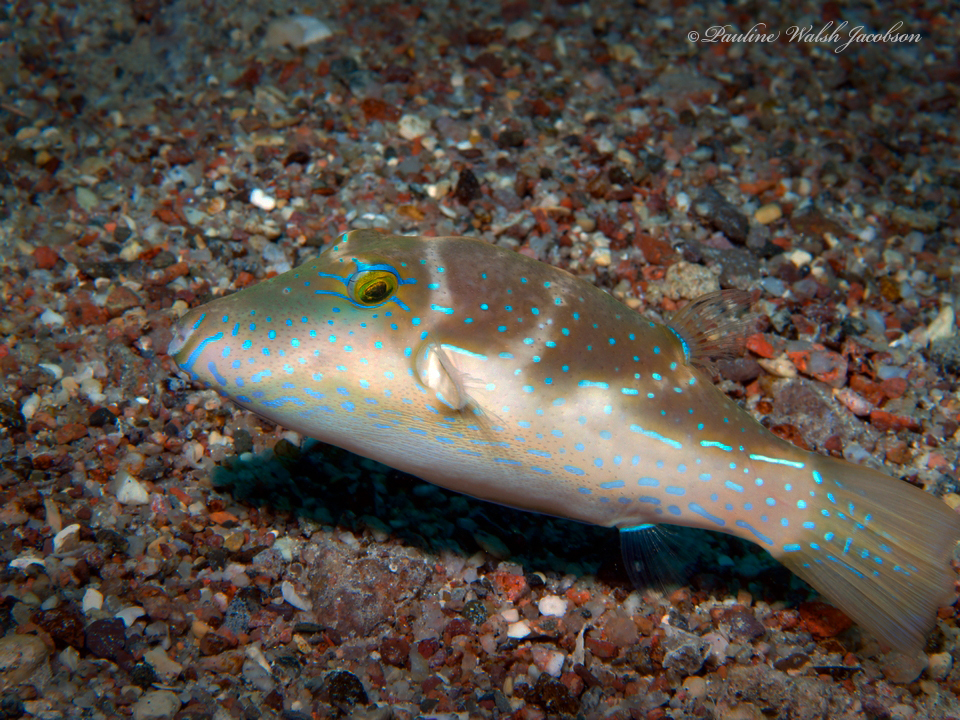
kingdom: Animalia
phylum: Chordata
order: Tetraodontiformes
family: Tetraodontidae
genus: Canthigaster
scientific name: Canthigaster cyanospilota
